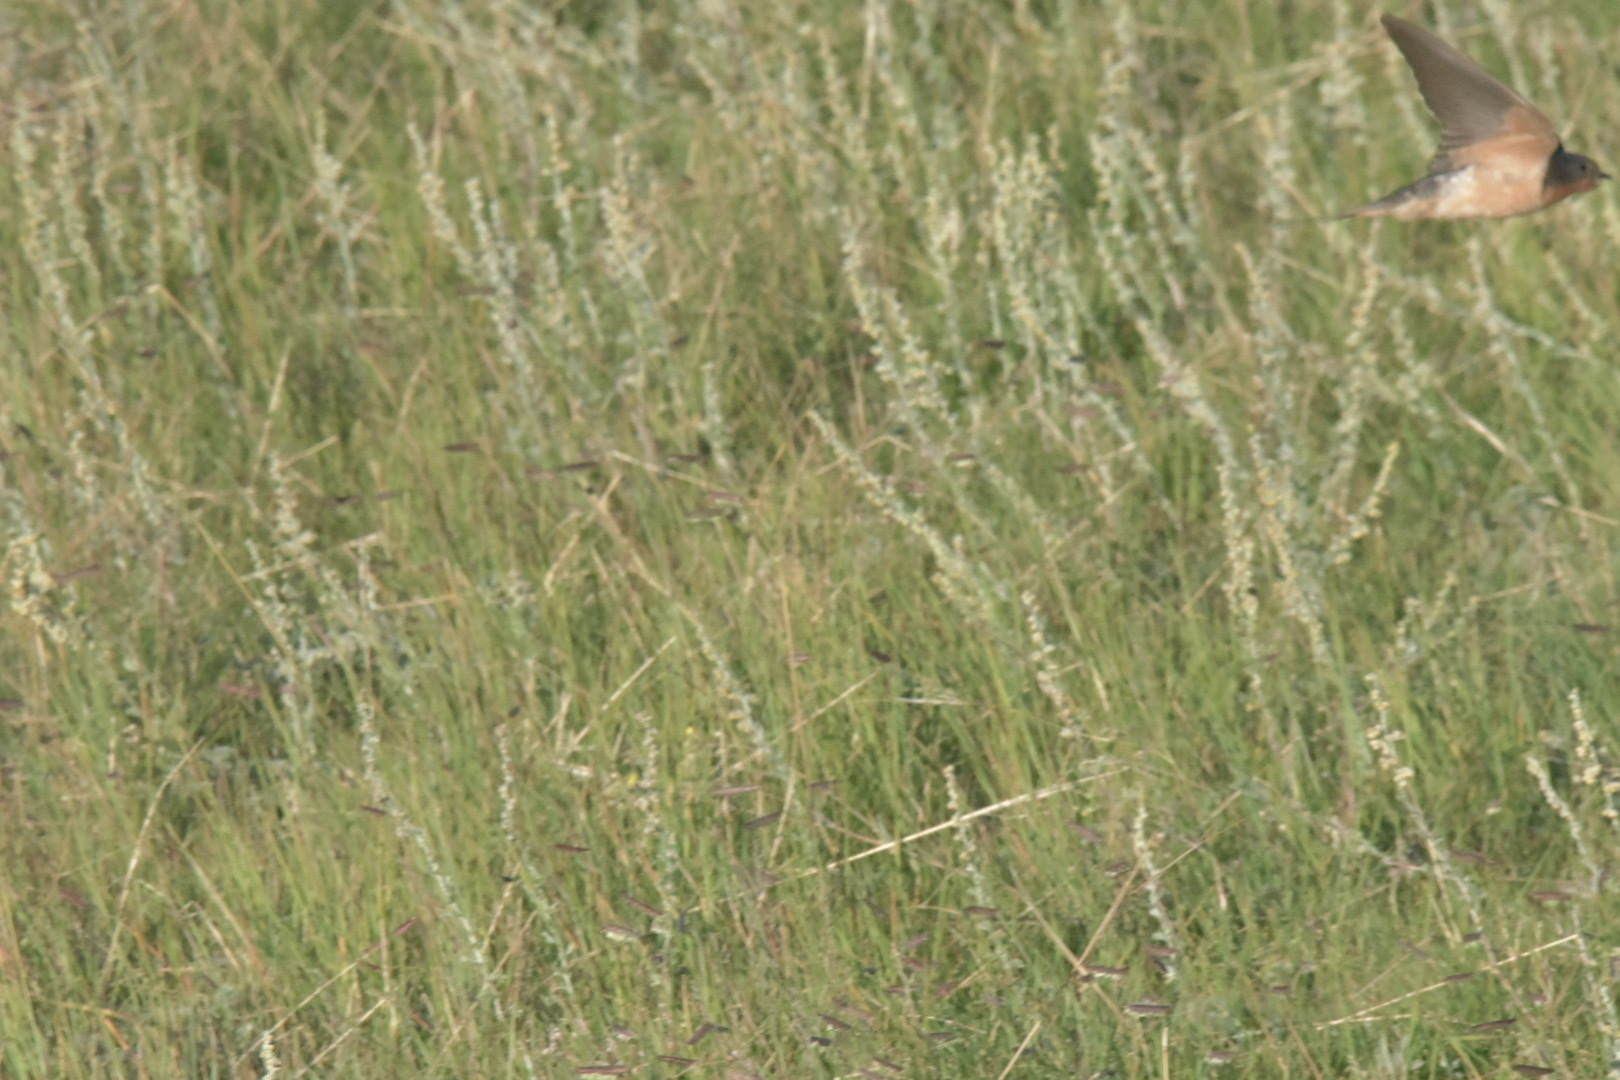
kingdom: Animalia
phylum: Chordata
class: Aves
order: Passeriformes
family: Hirundinidae
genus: Hirundo
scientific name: Hirundo rustica
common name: Barn swallow
